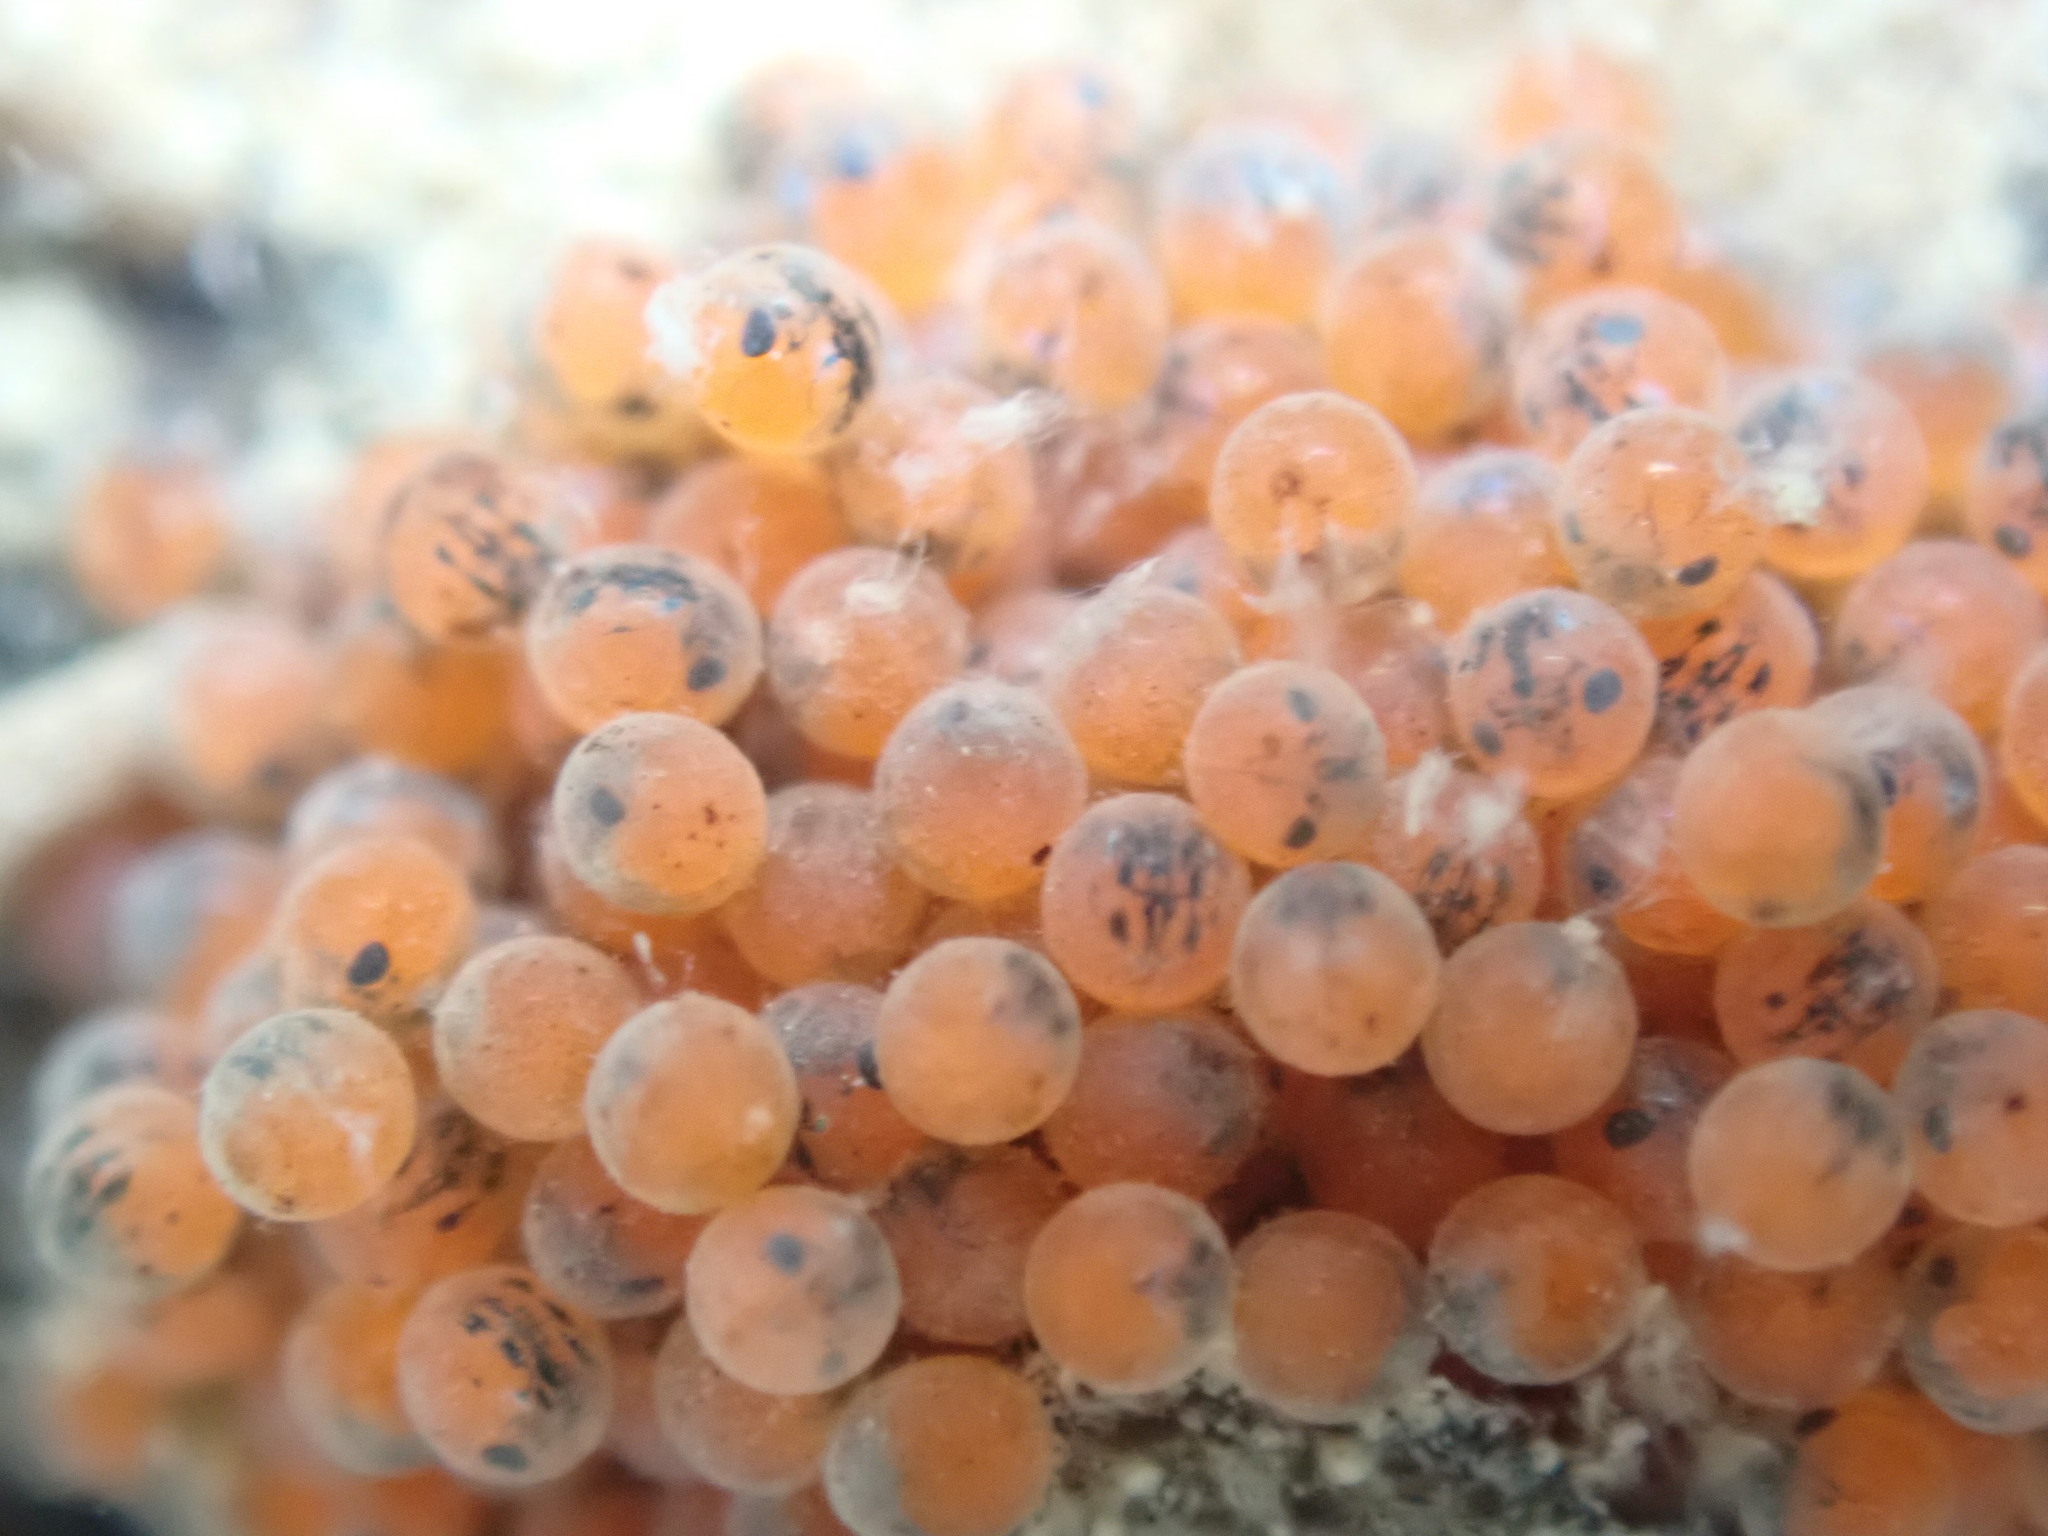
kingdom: Animalia
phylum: Arthropoda
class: Malacostraca
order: Decapoda
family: Heteroziidae
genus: Heterozius
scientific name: Heterozius rotundifrons
